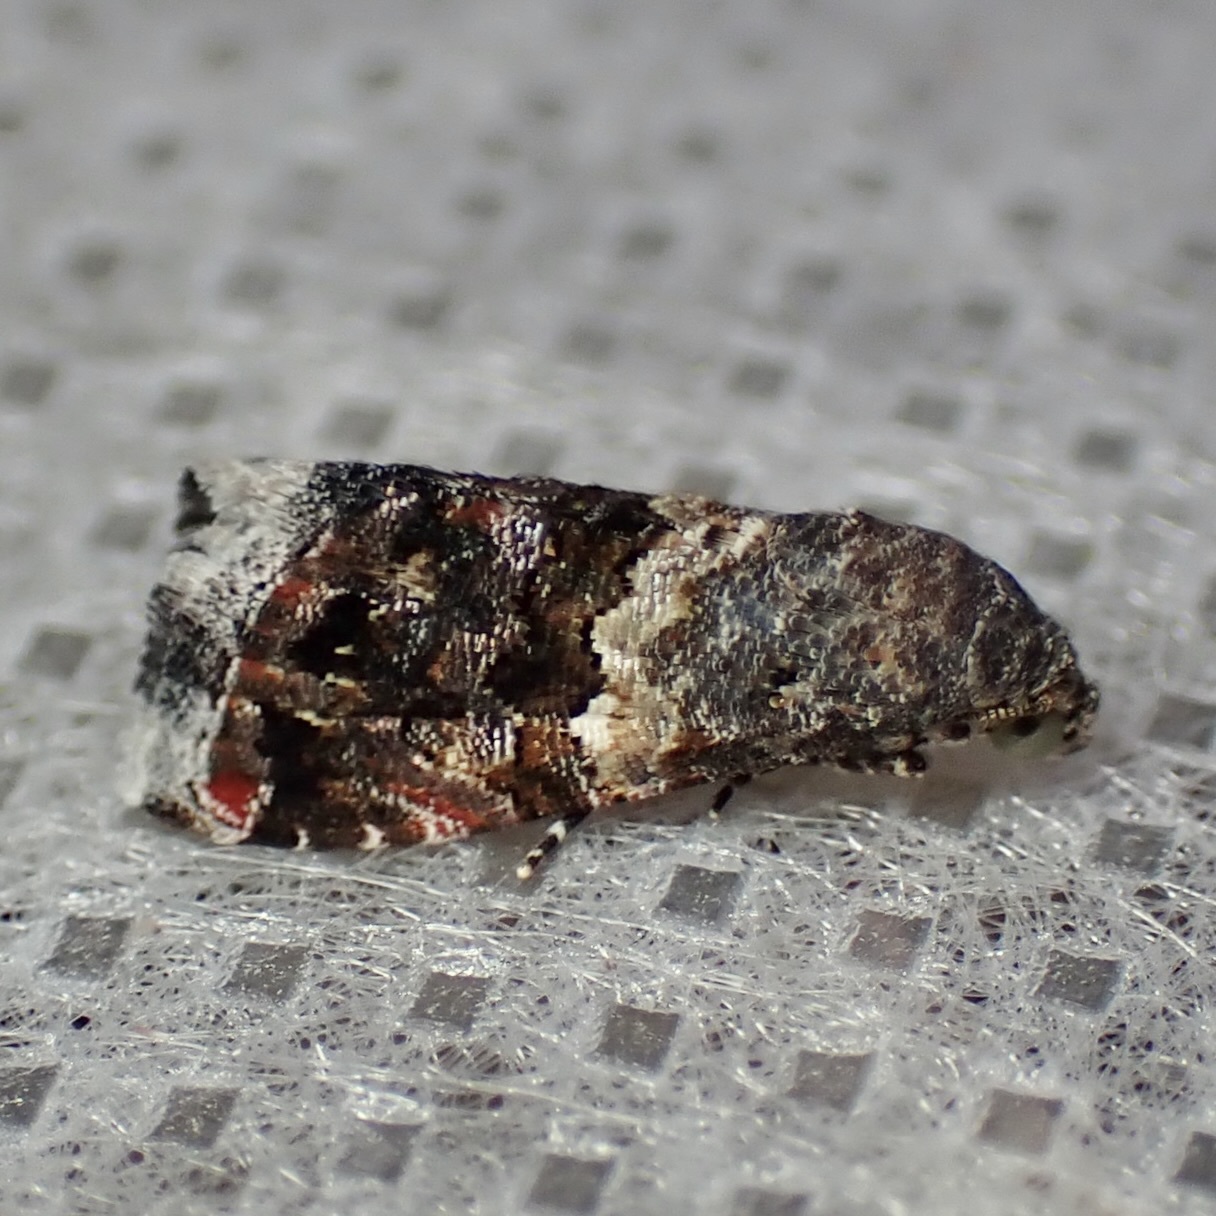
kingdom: Animalia
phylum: Arthropoda
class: Insecta
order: Lepidoptera
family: Noctuidae
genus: Tripudia
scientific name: Tripudia luxuriosa
